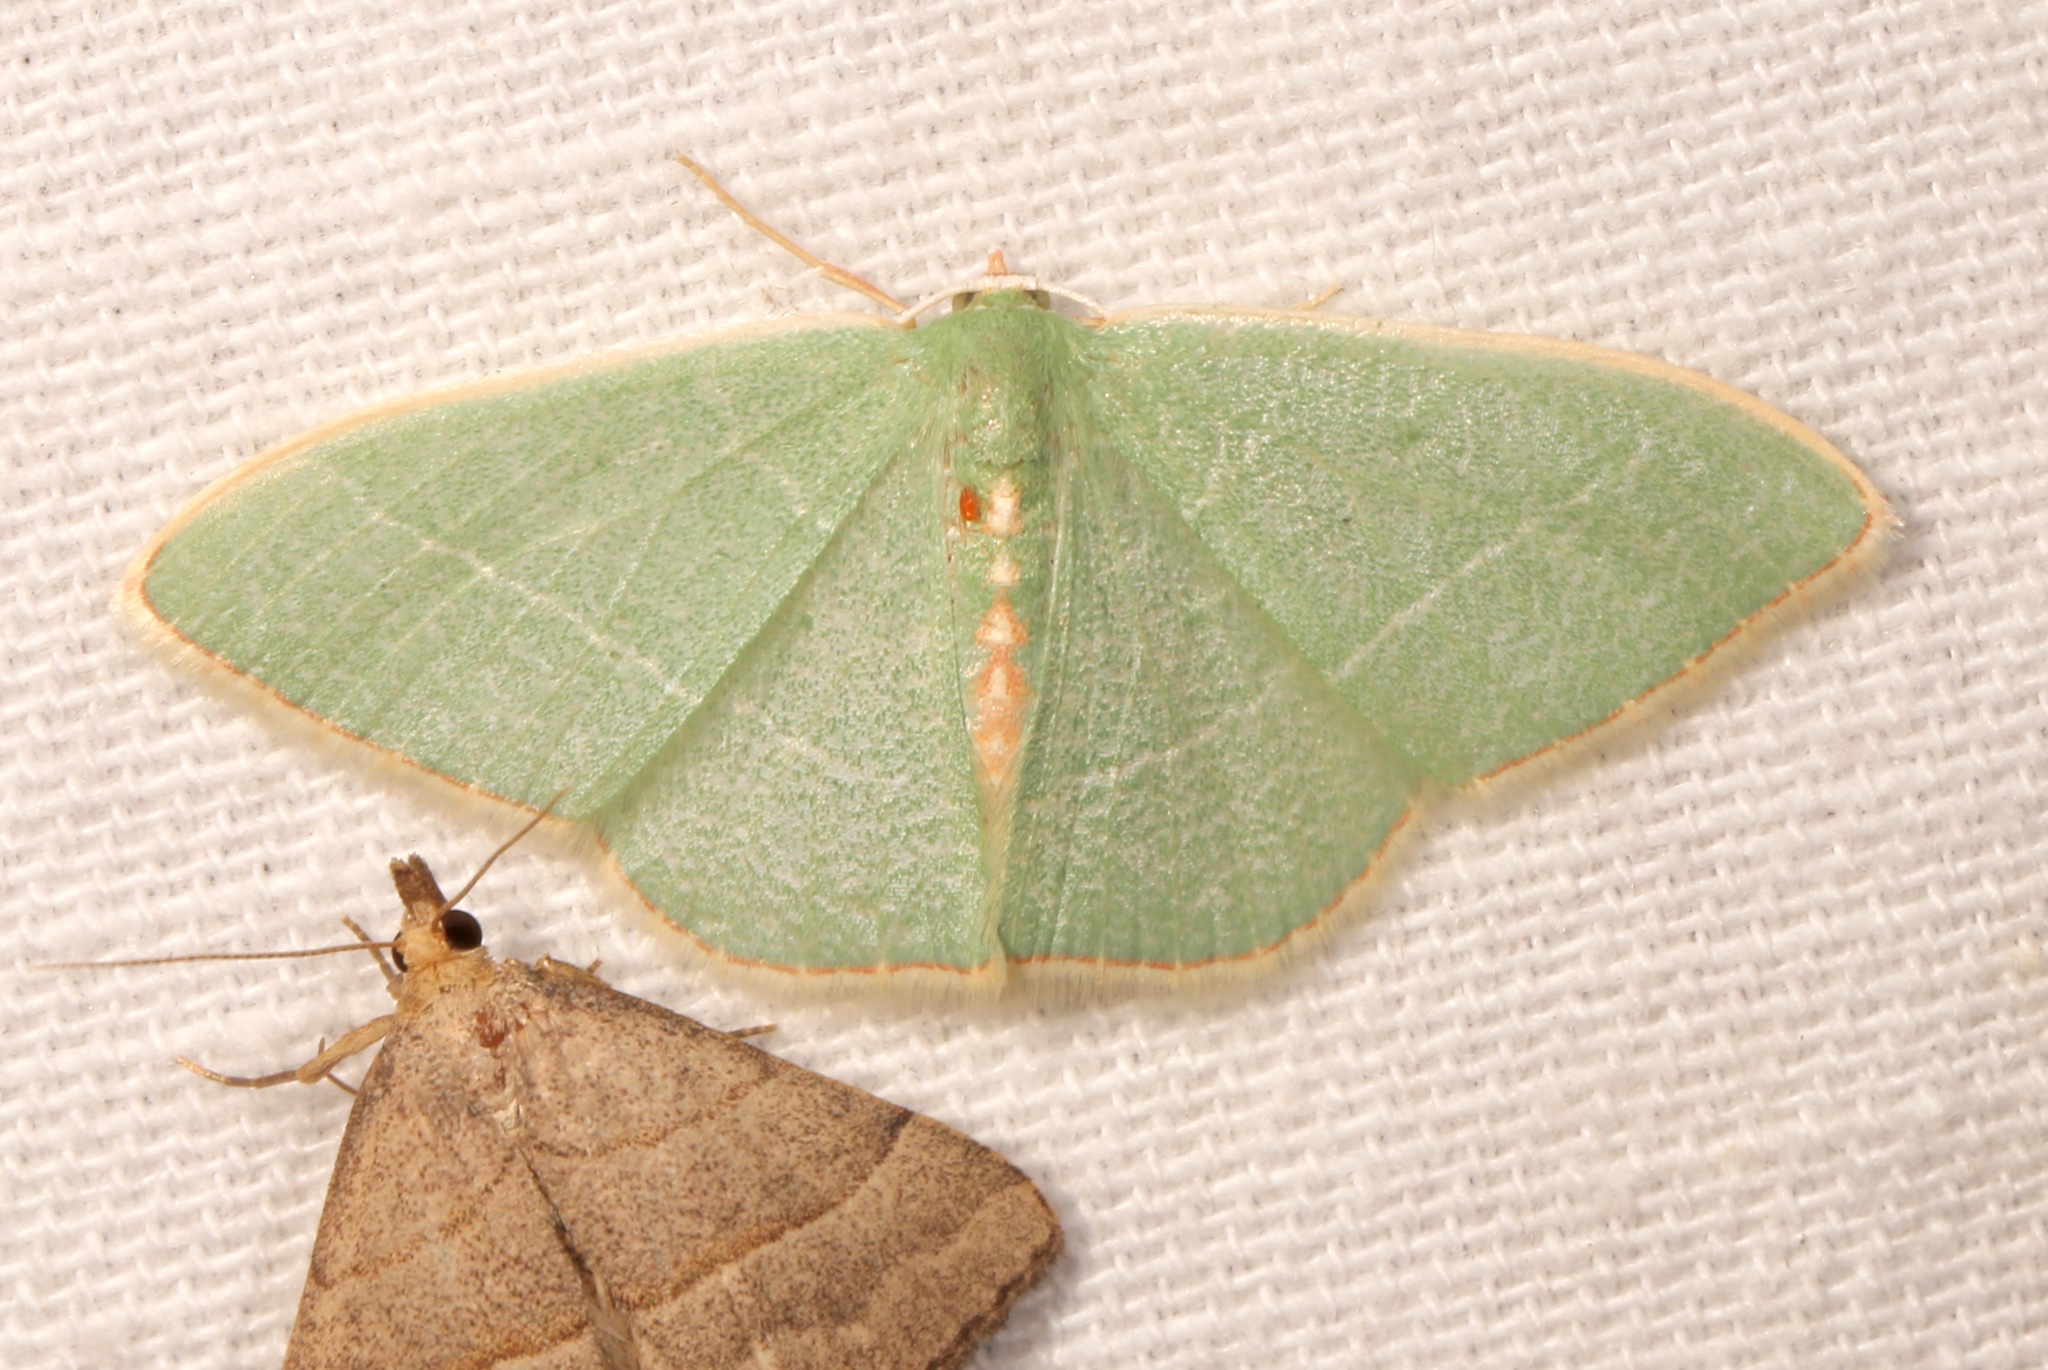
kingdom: Animalia
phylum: Arthropoda
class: Insecta
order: Lepidoptera
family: Geometridae
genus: Nemoria
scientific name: Nemoria festaria
